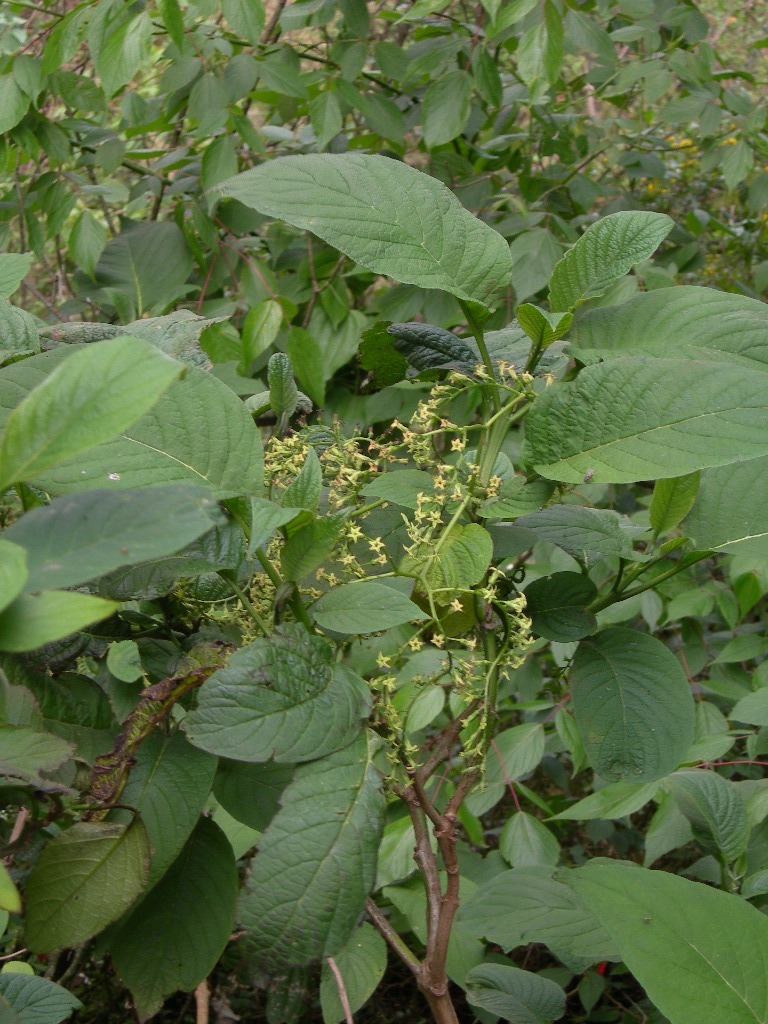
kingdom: Plantae
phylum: Tracheophyta
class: Magnoliopsida
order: Boraginales
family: Heliotropiaceae
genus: Tournefortia
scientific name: Tournefortia elongata
